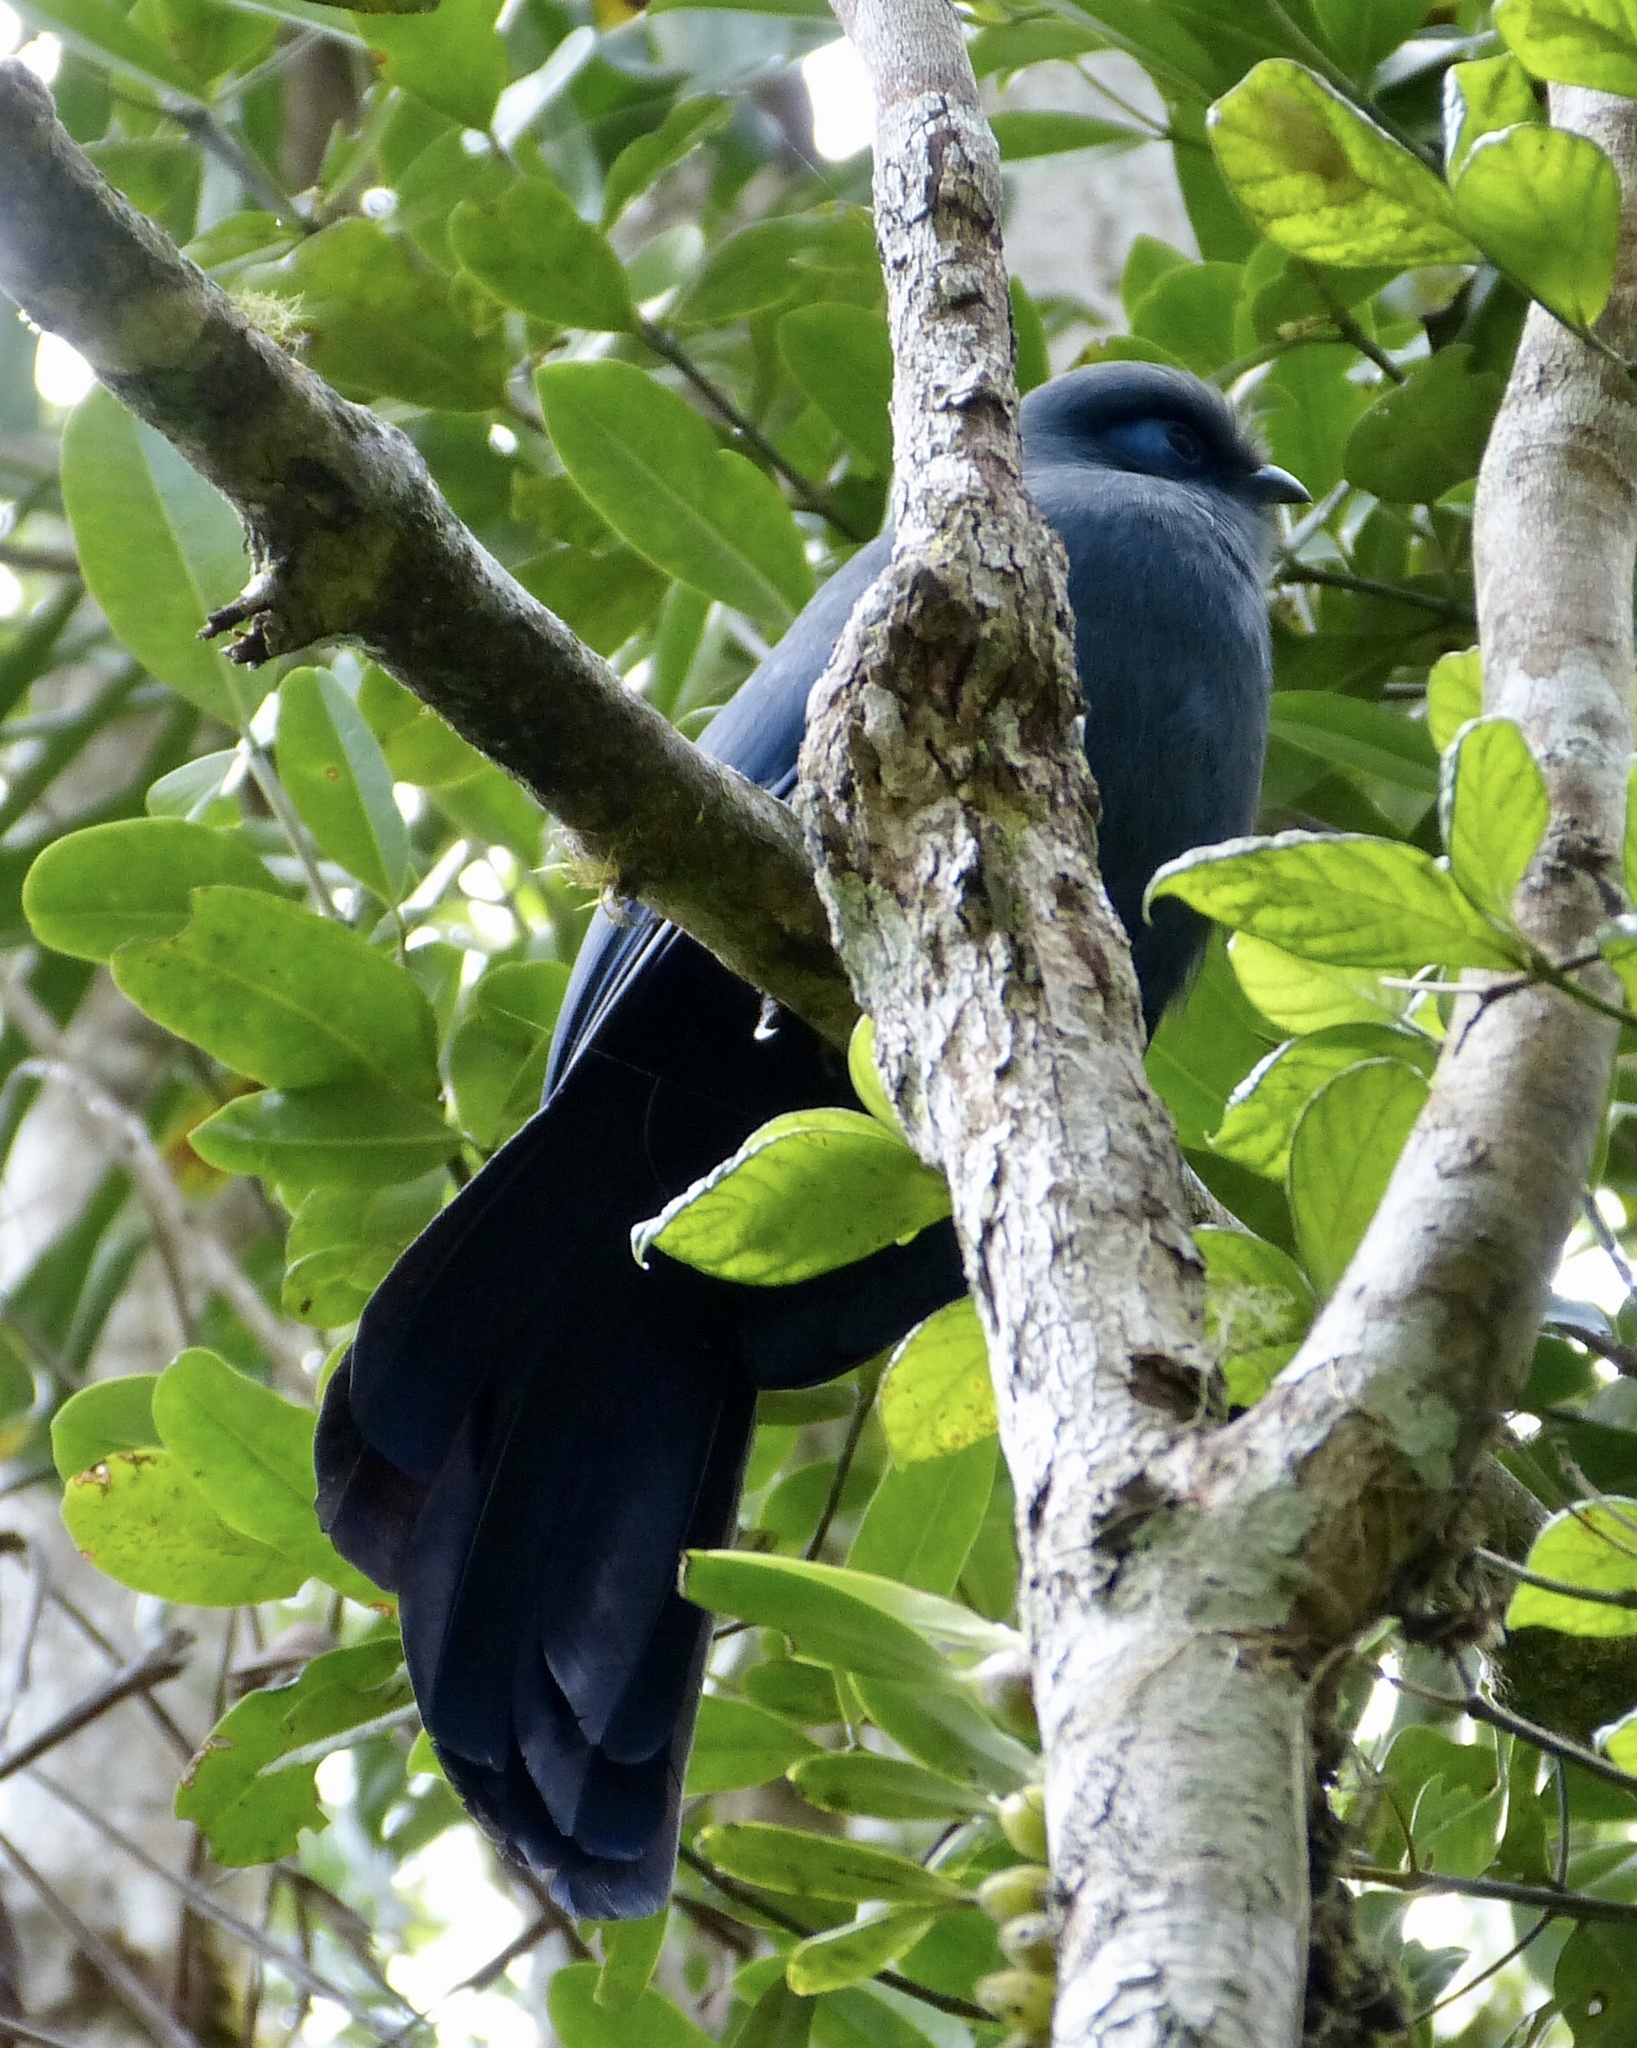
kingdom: Animalia
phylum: Chordata
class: Aves
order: Cuculiformes
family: Cuculidae
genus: Coua
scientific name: Coua caerulea
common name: Blue coua
